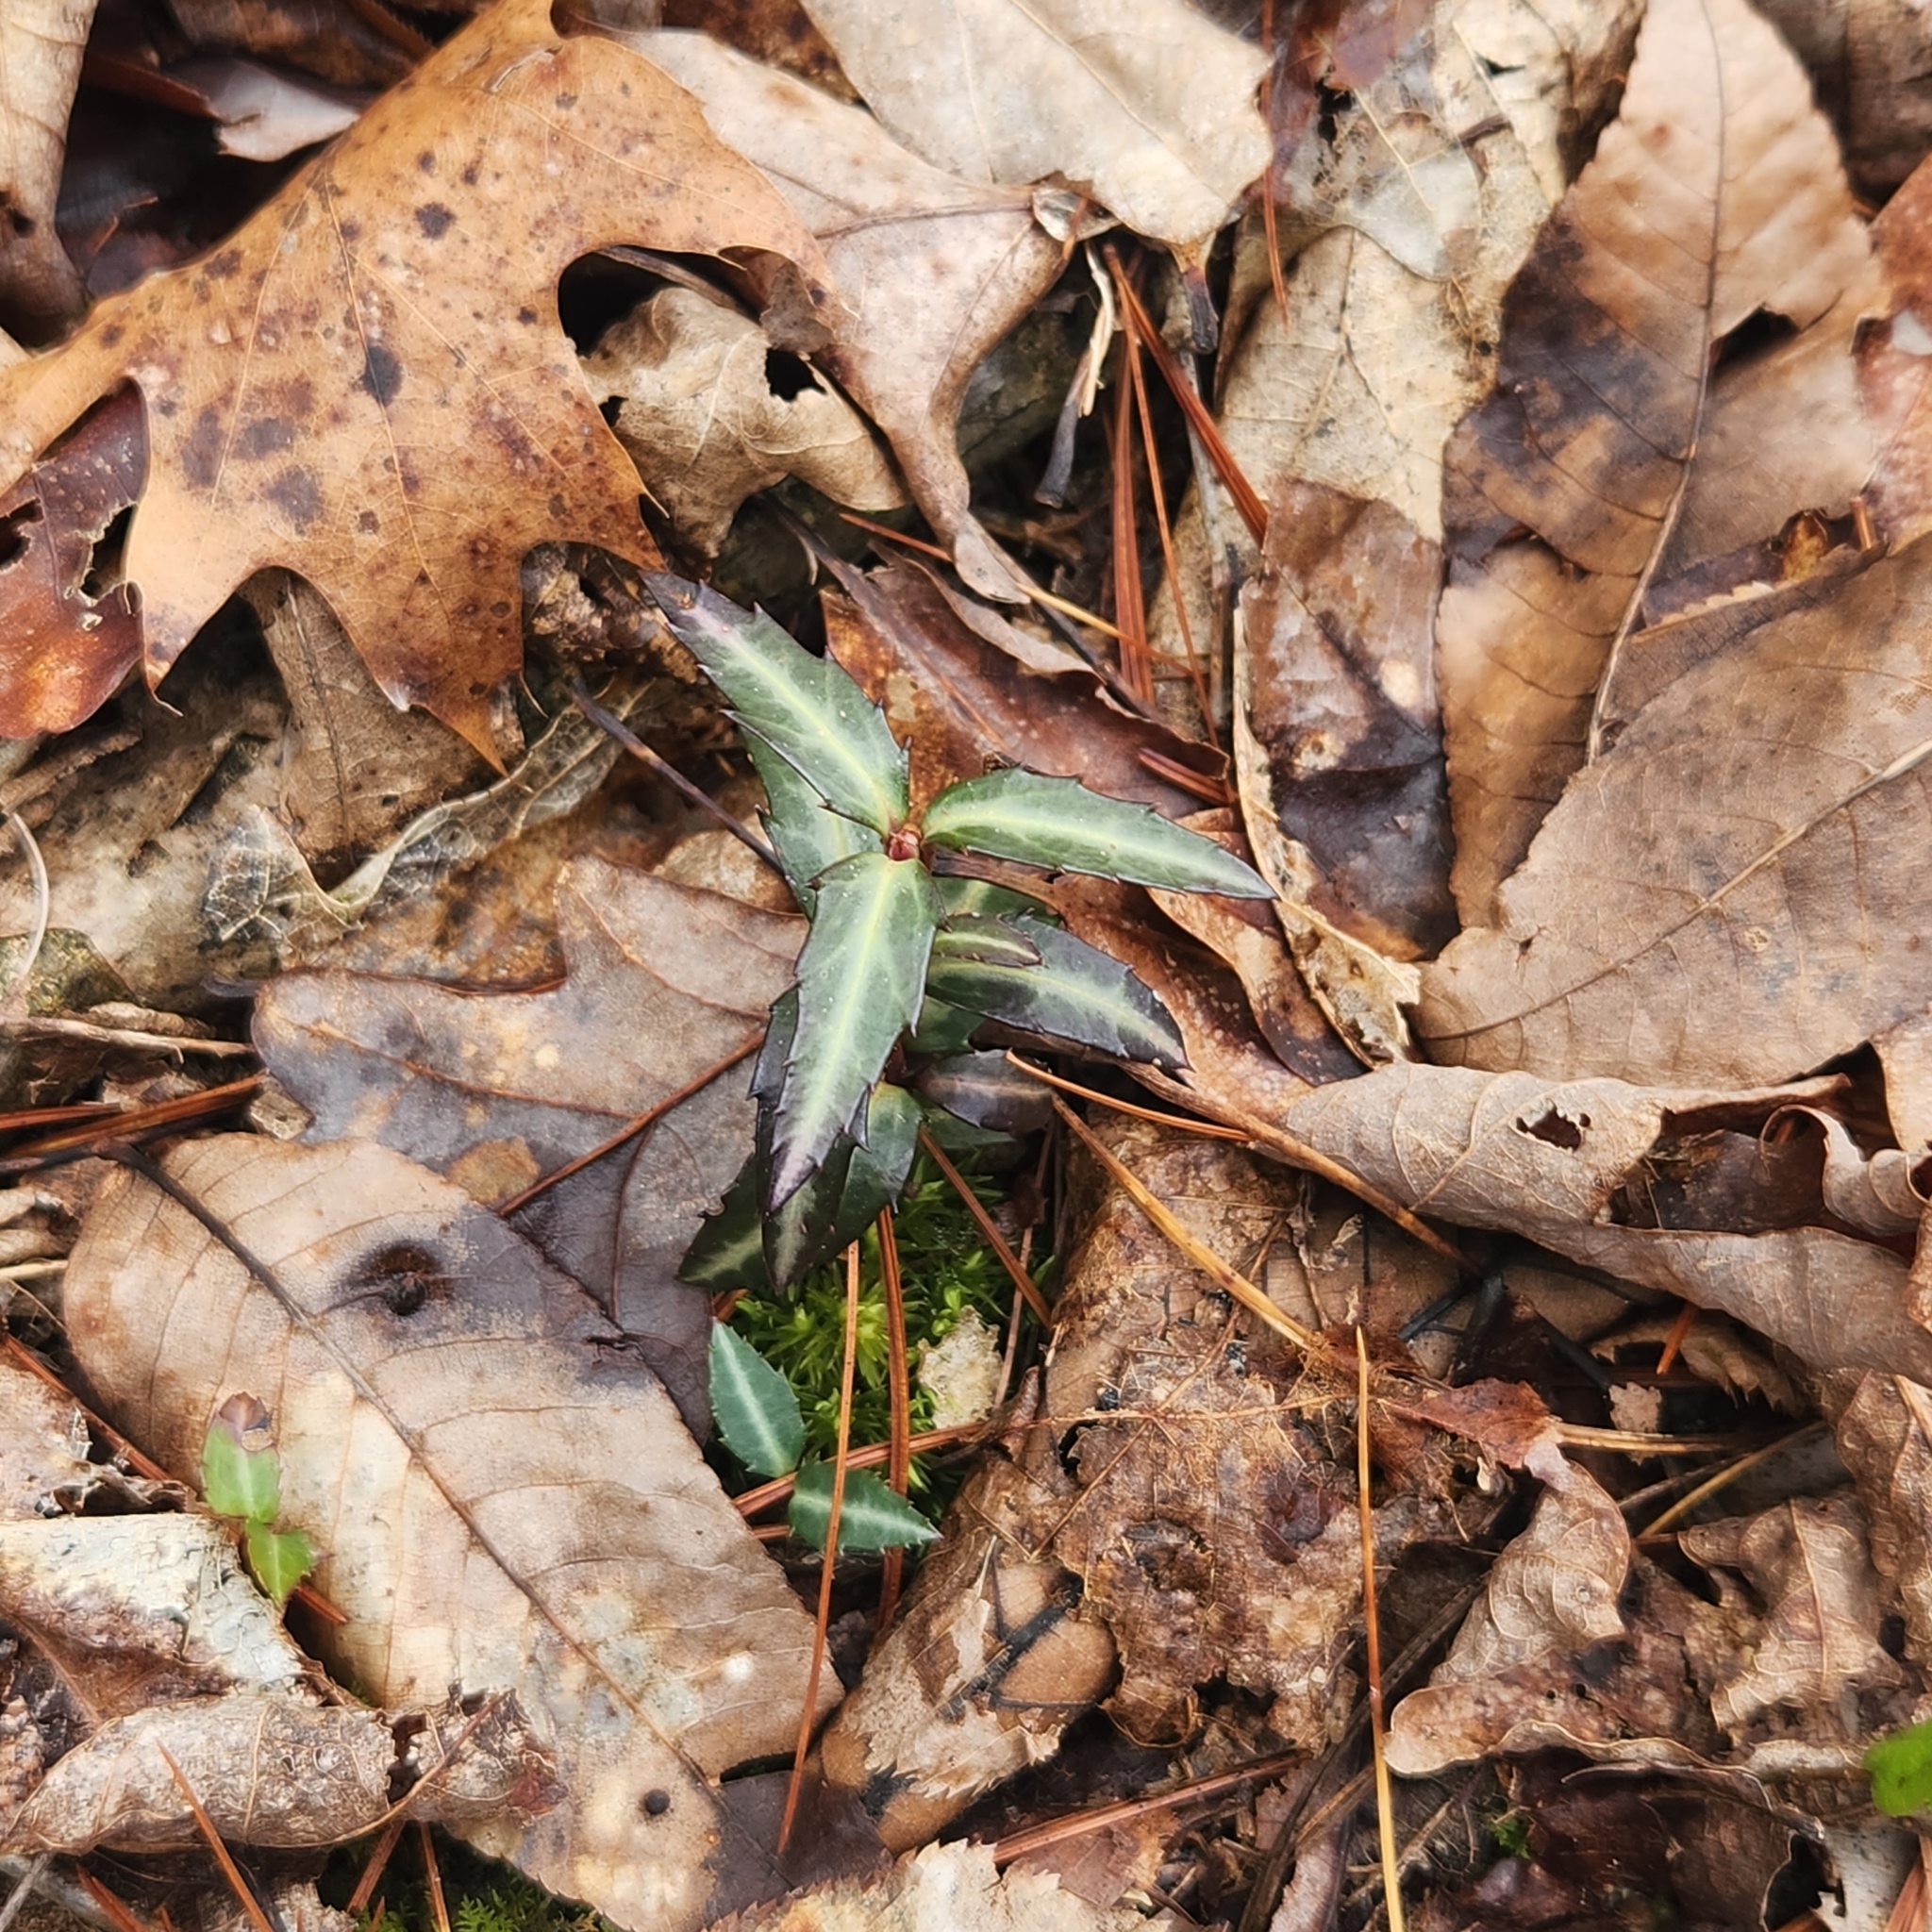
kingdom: Plantae
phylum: Tracheophyta
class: Magnoliopsida
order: Ericales
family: Ericaceae
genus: Chimaphila
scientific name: Chimaphila maculata
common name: Spotted pipsissewa
